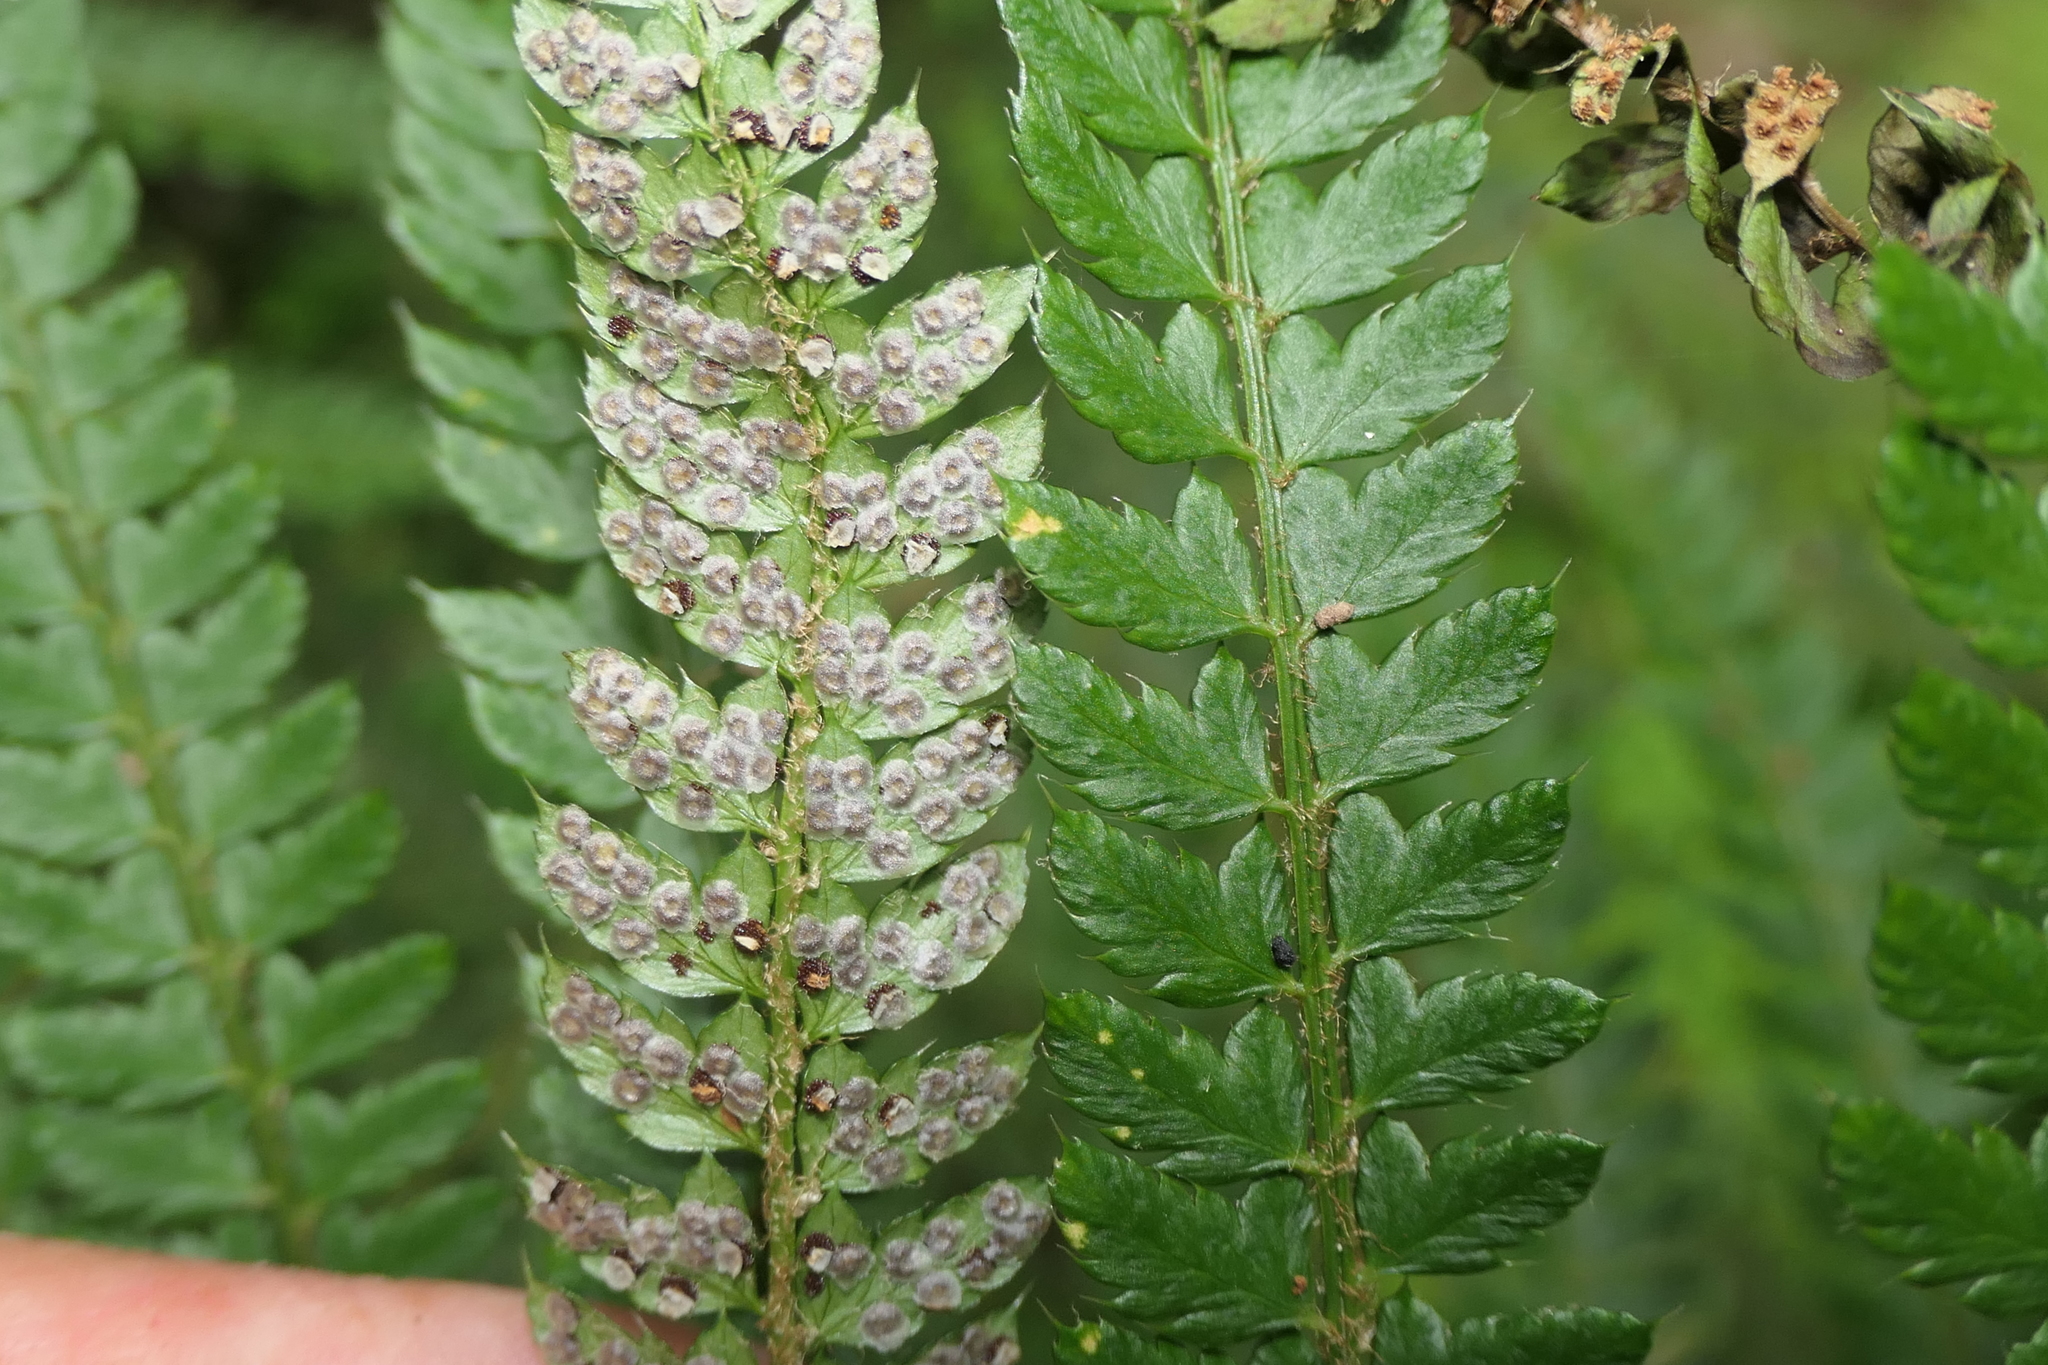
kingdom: Plantae
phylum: Tracheophyta
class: Polypodiopsida
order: Polypodiales
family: Dryopteridaceae
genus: Polystichum
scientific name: Polystichum setiferum
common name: Soft shield-fern
